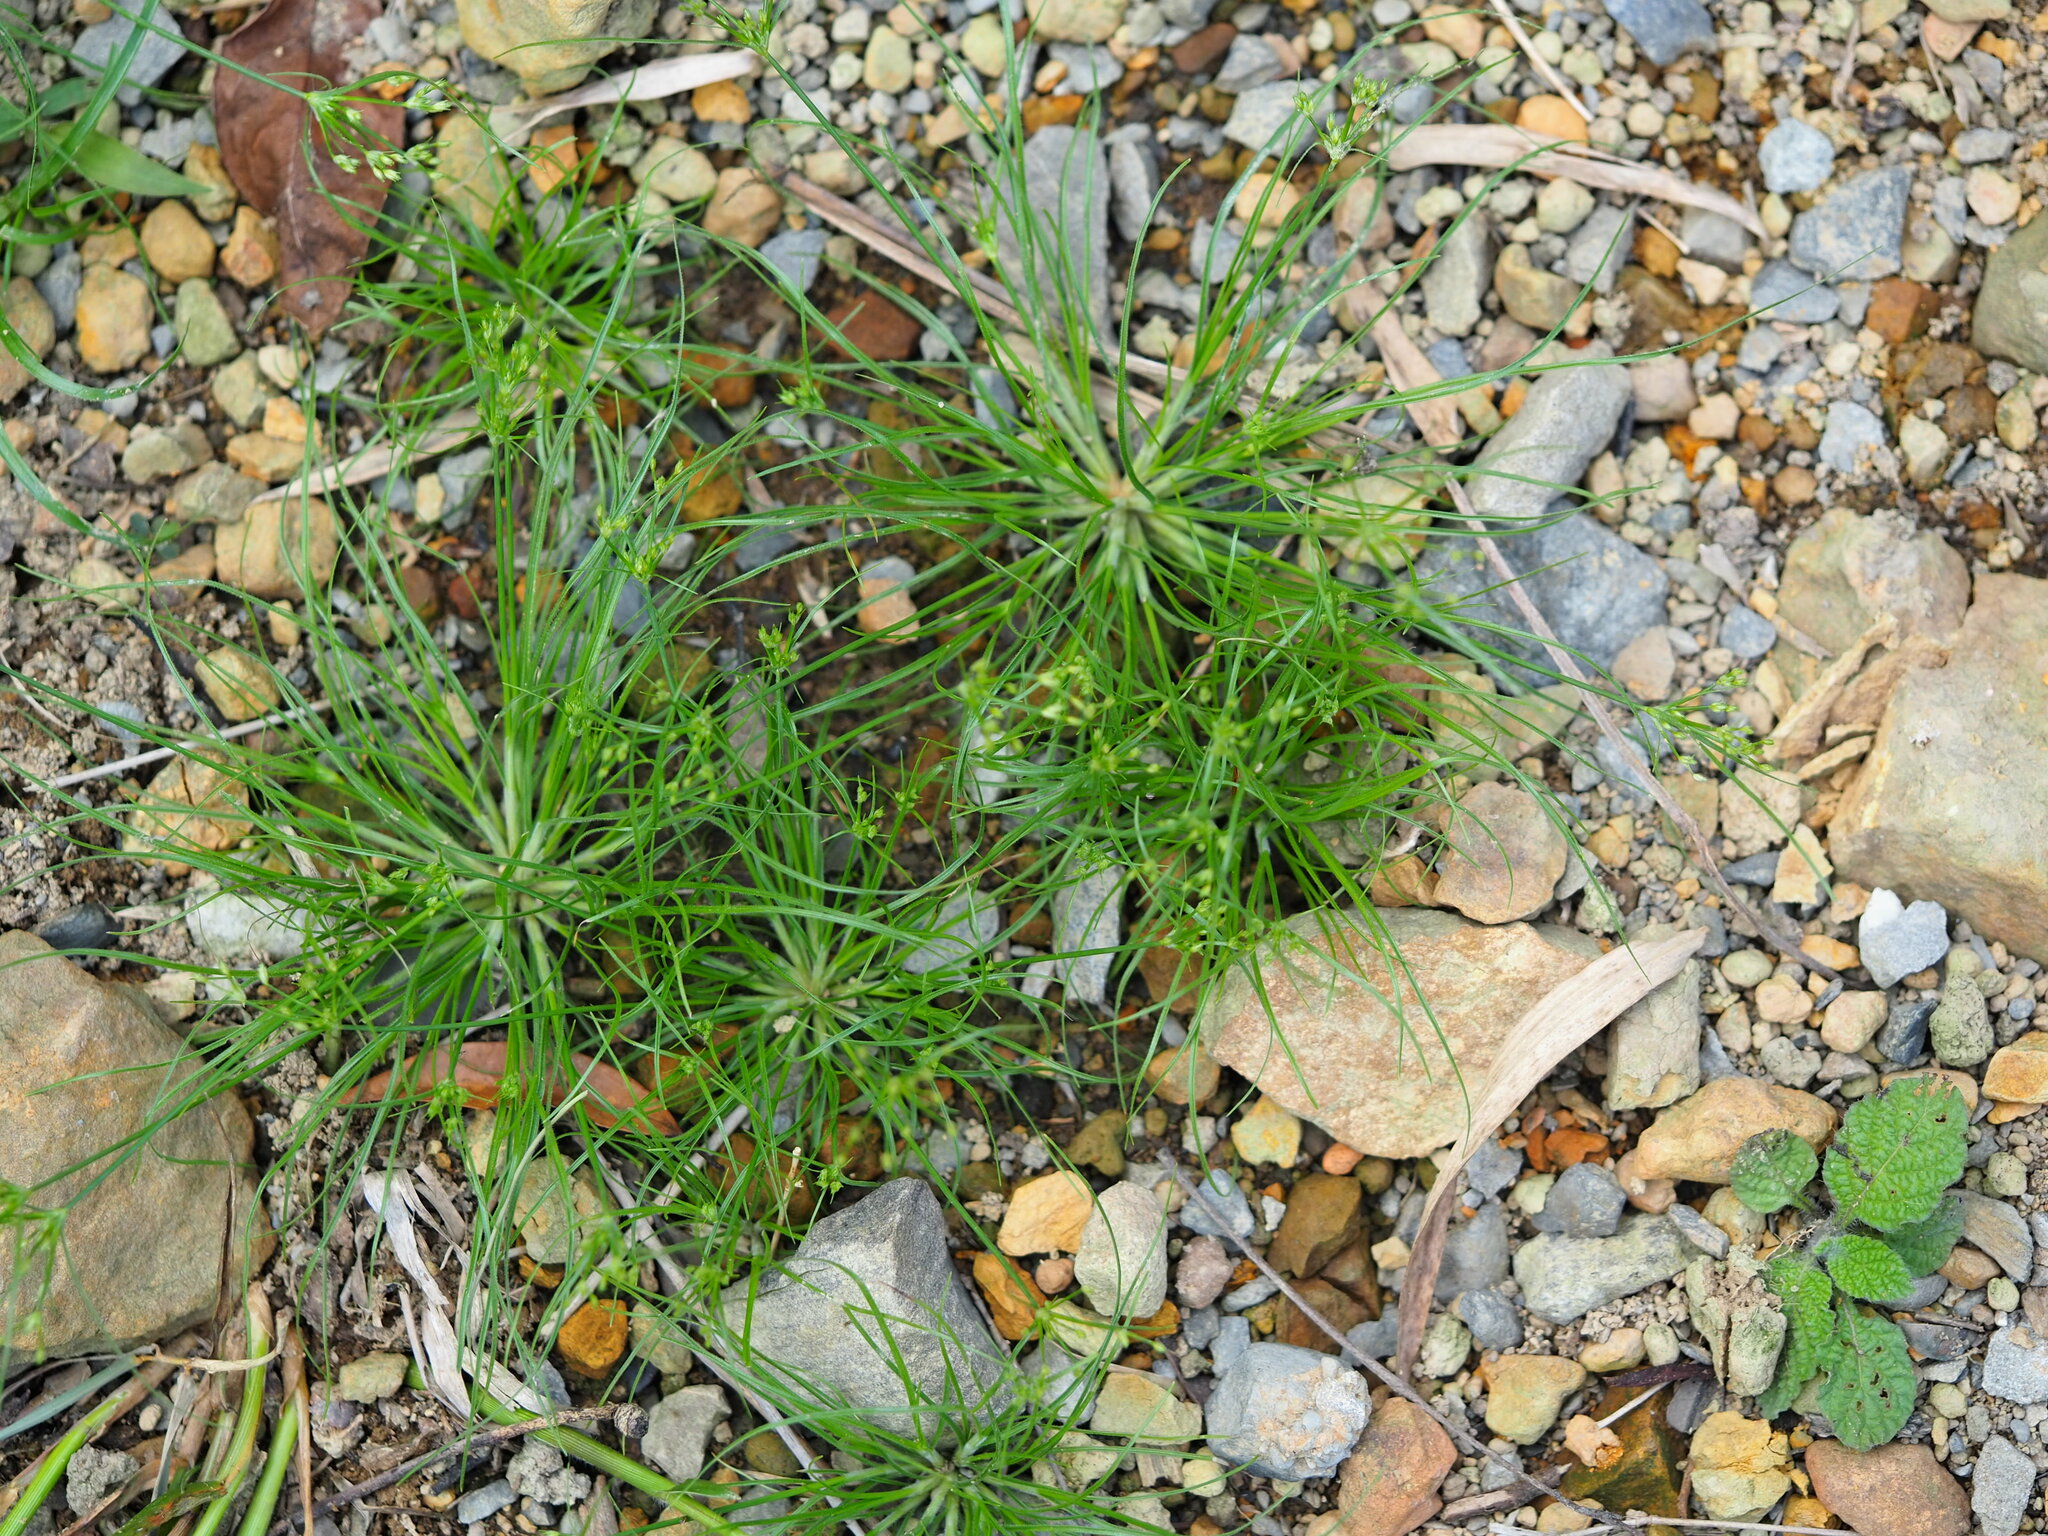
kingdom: Plantae
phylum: Tracheophyta
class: Liliopsida
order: Poales
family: Cyperaceae
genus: Fimbristylis
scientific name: Fimbristylis aestivalis
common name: Summer fimbry
